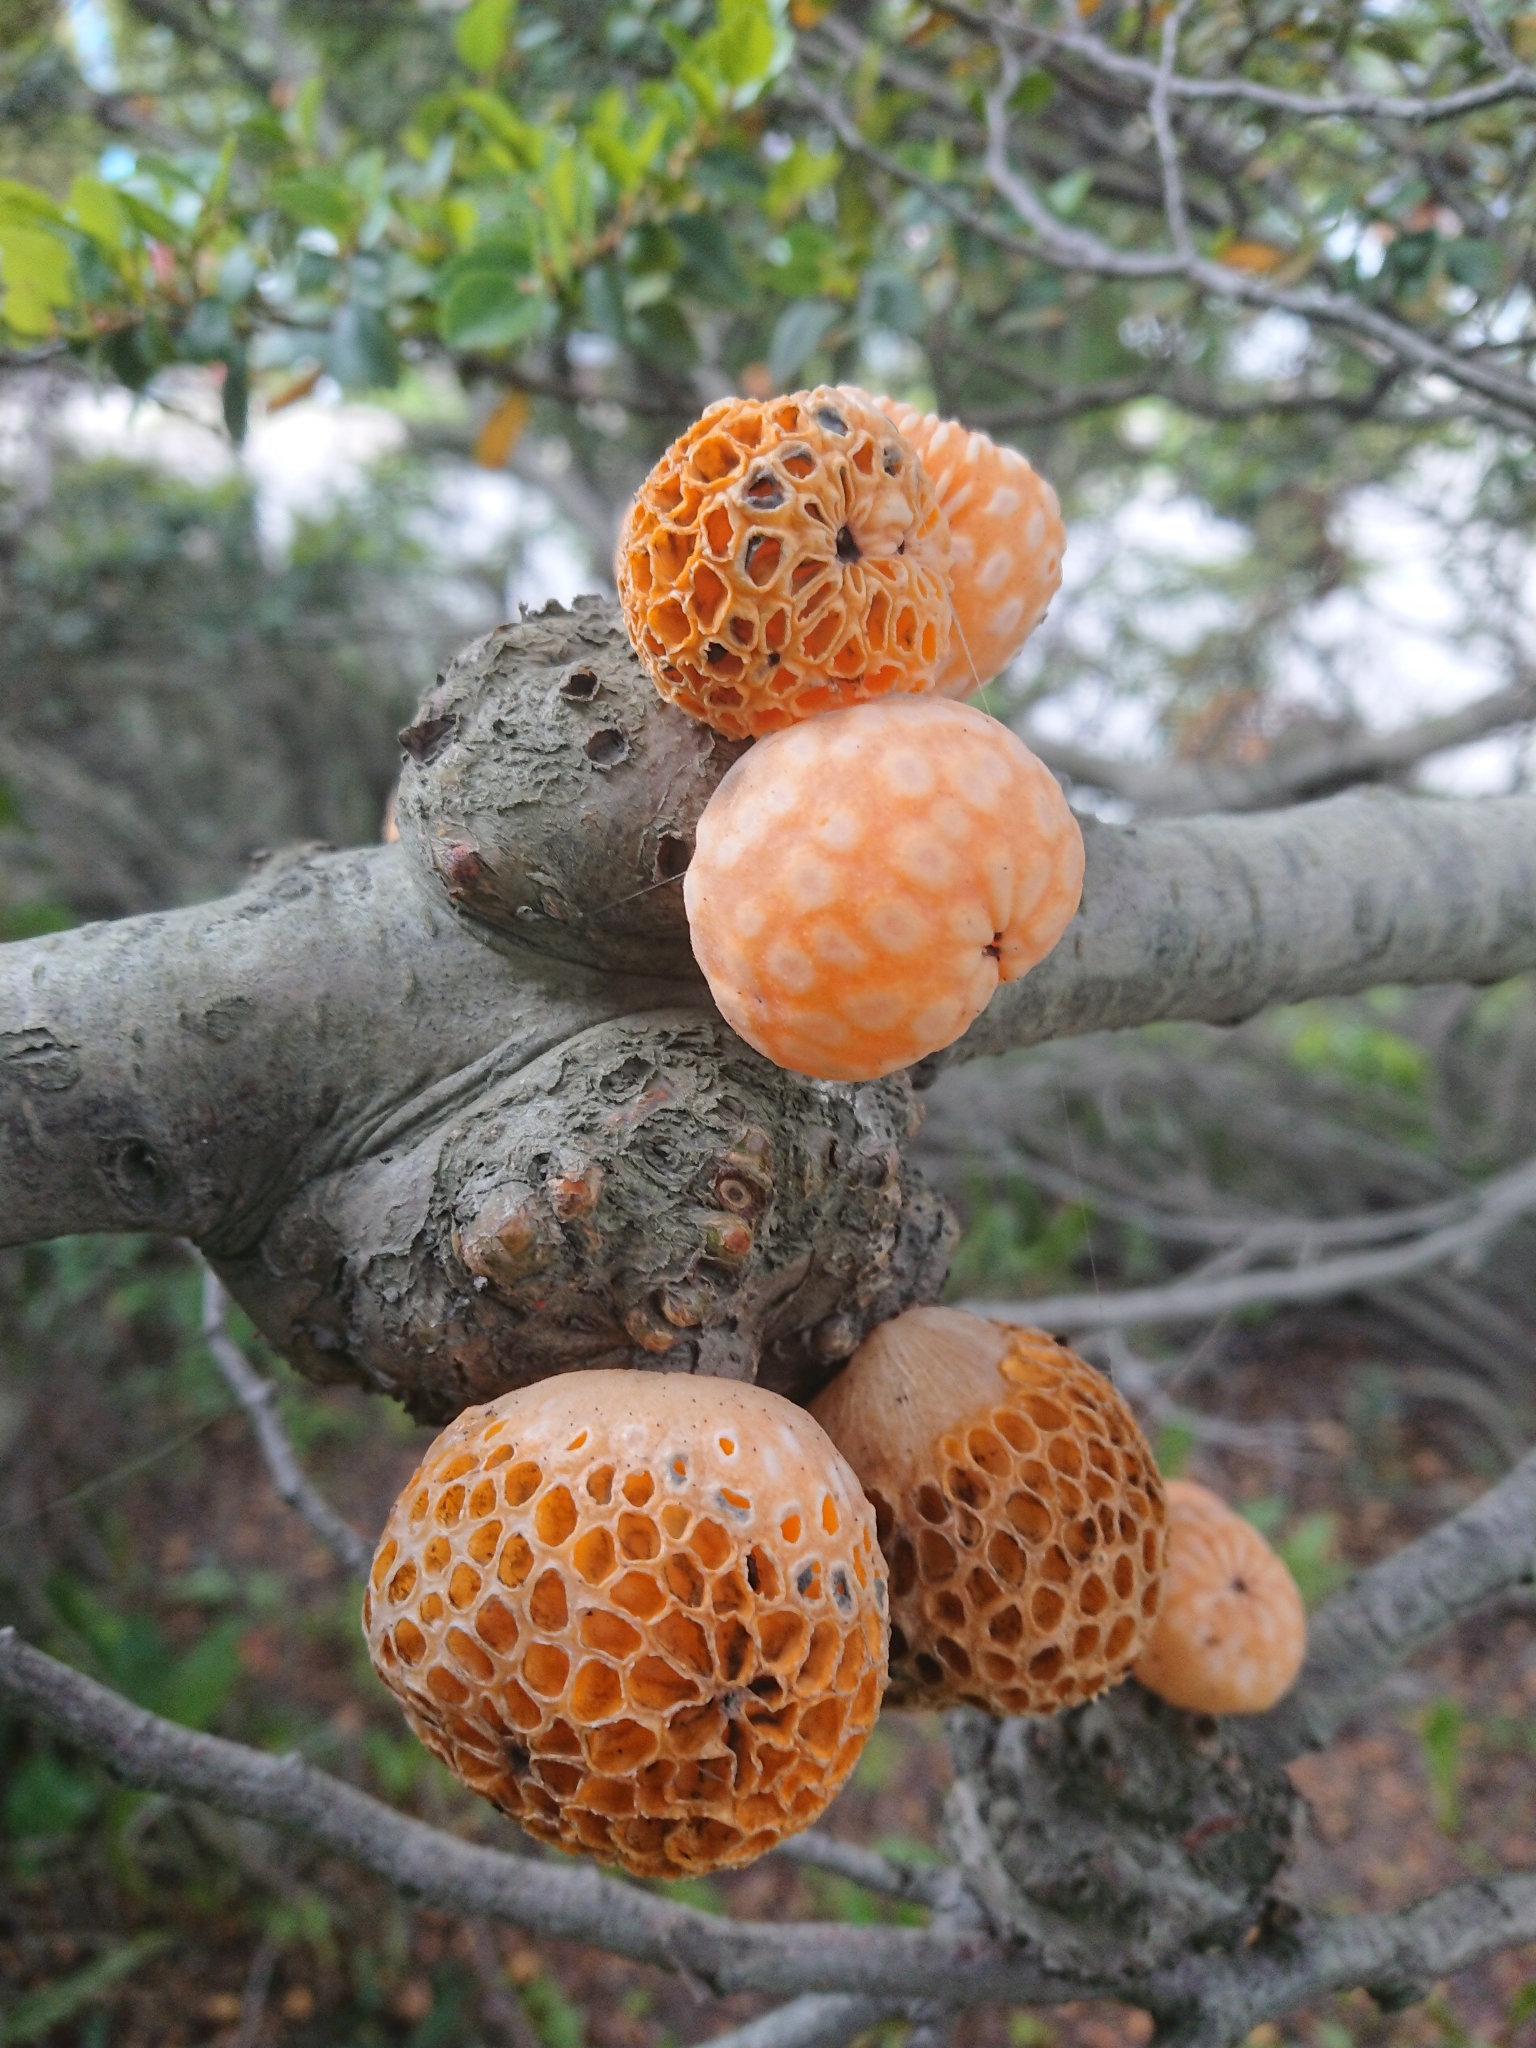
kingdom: Fungi
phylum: Ascomycota
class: Leotiomycetes
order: Cyttariales
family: Cyttariaceae
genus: Cyttaria
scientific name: Cyttaria hariotii
